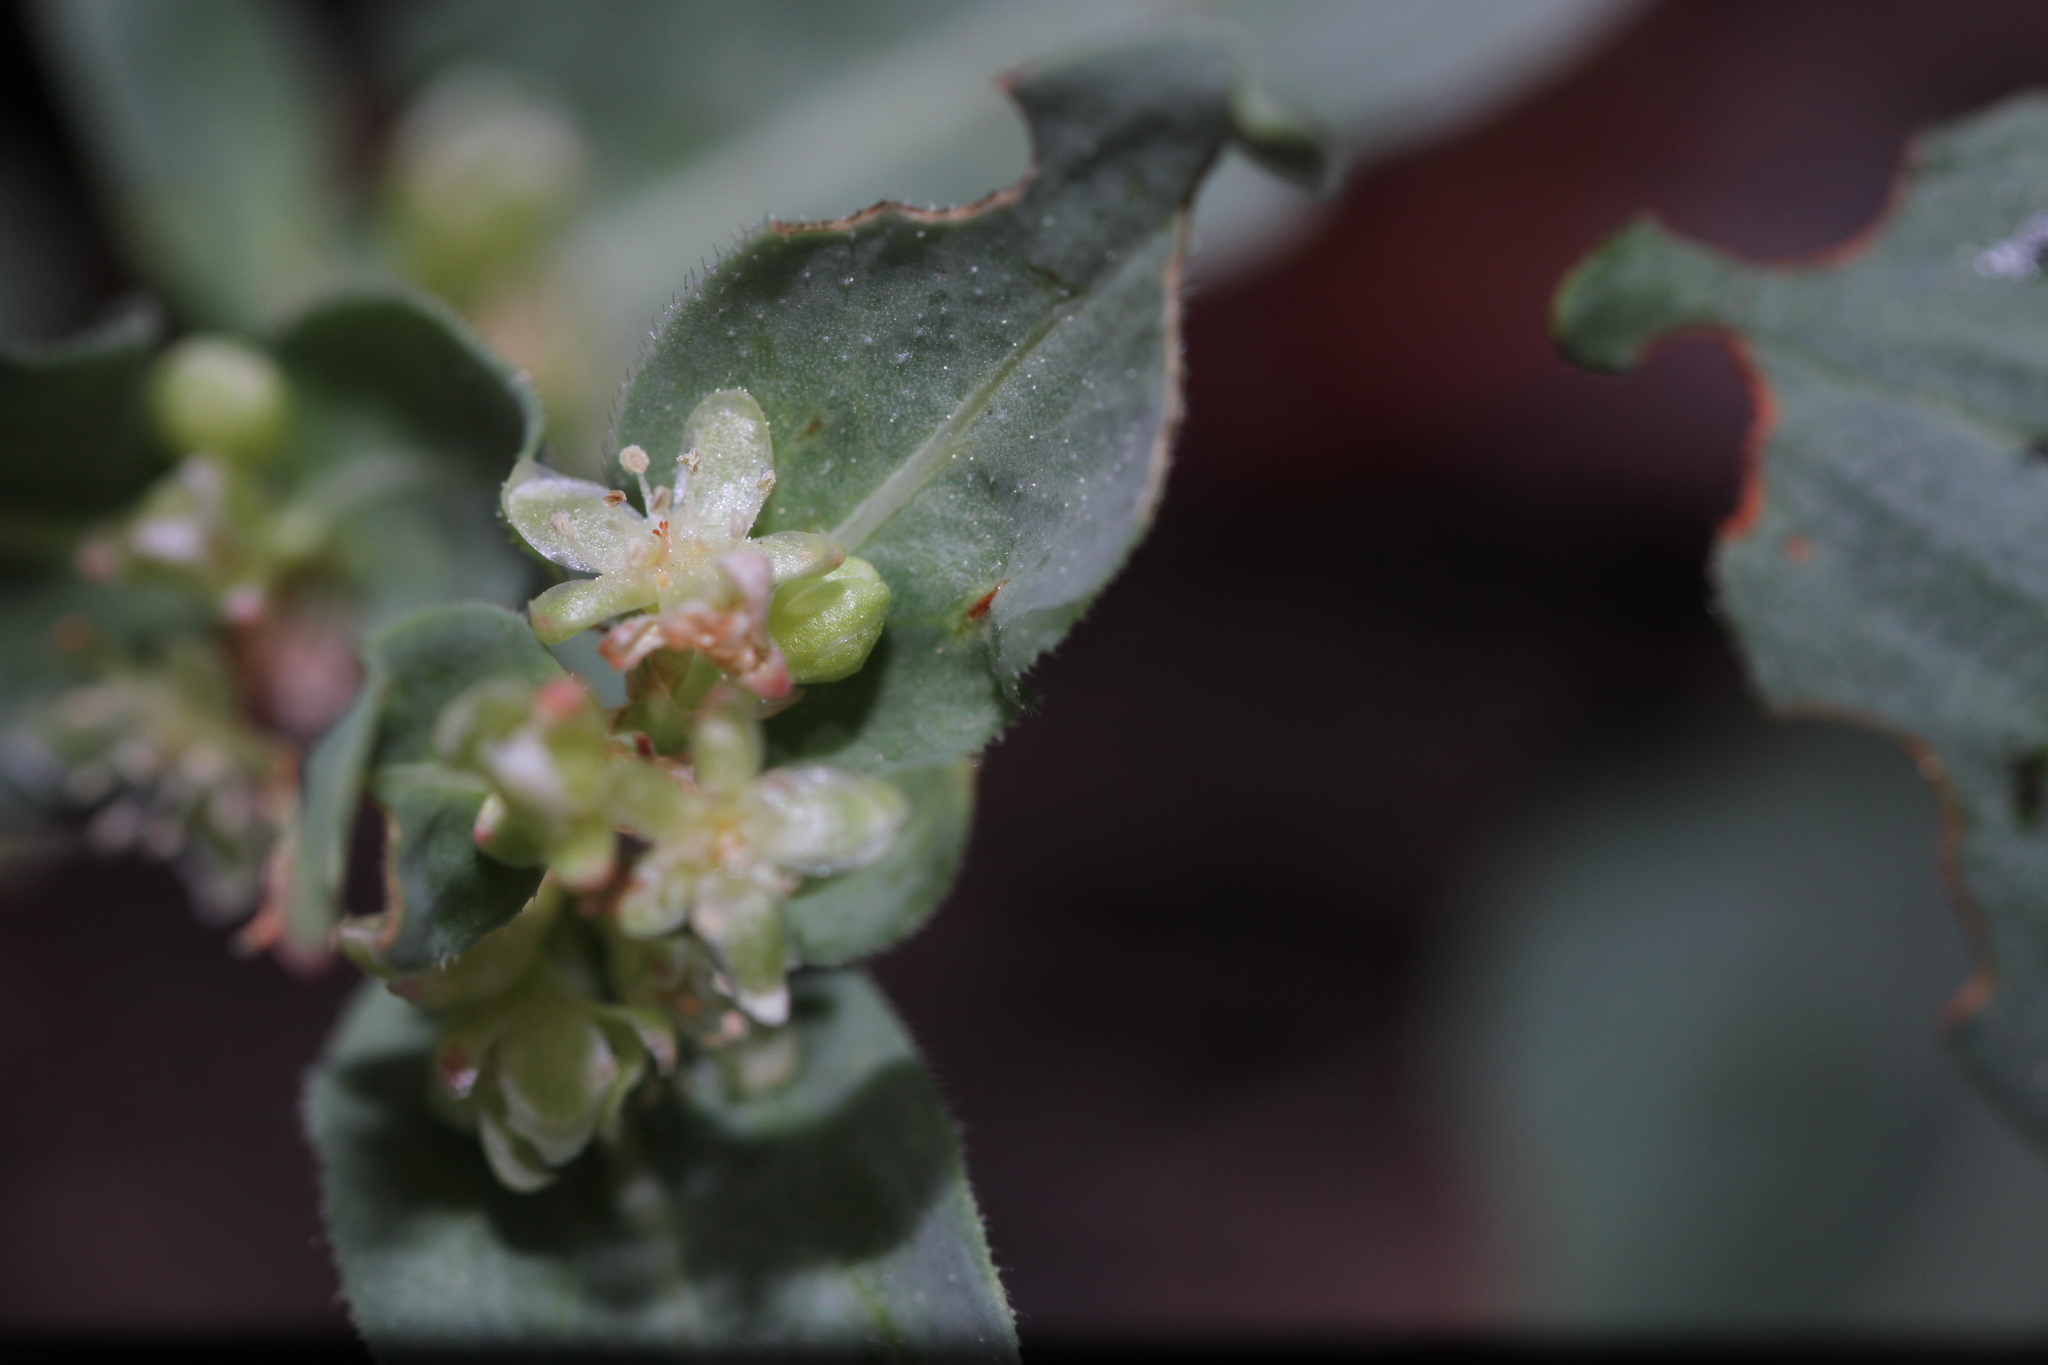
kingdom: Plantae
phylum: Tracheophyta
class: Magnoliopsida
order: Caryophyllales
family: Polygonaceae
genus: Koenigia
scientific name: Koenigia davisiae
